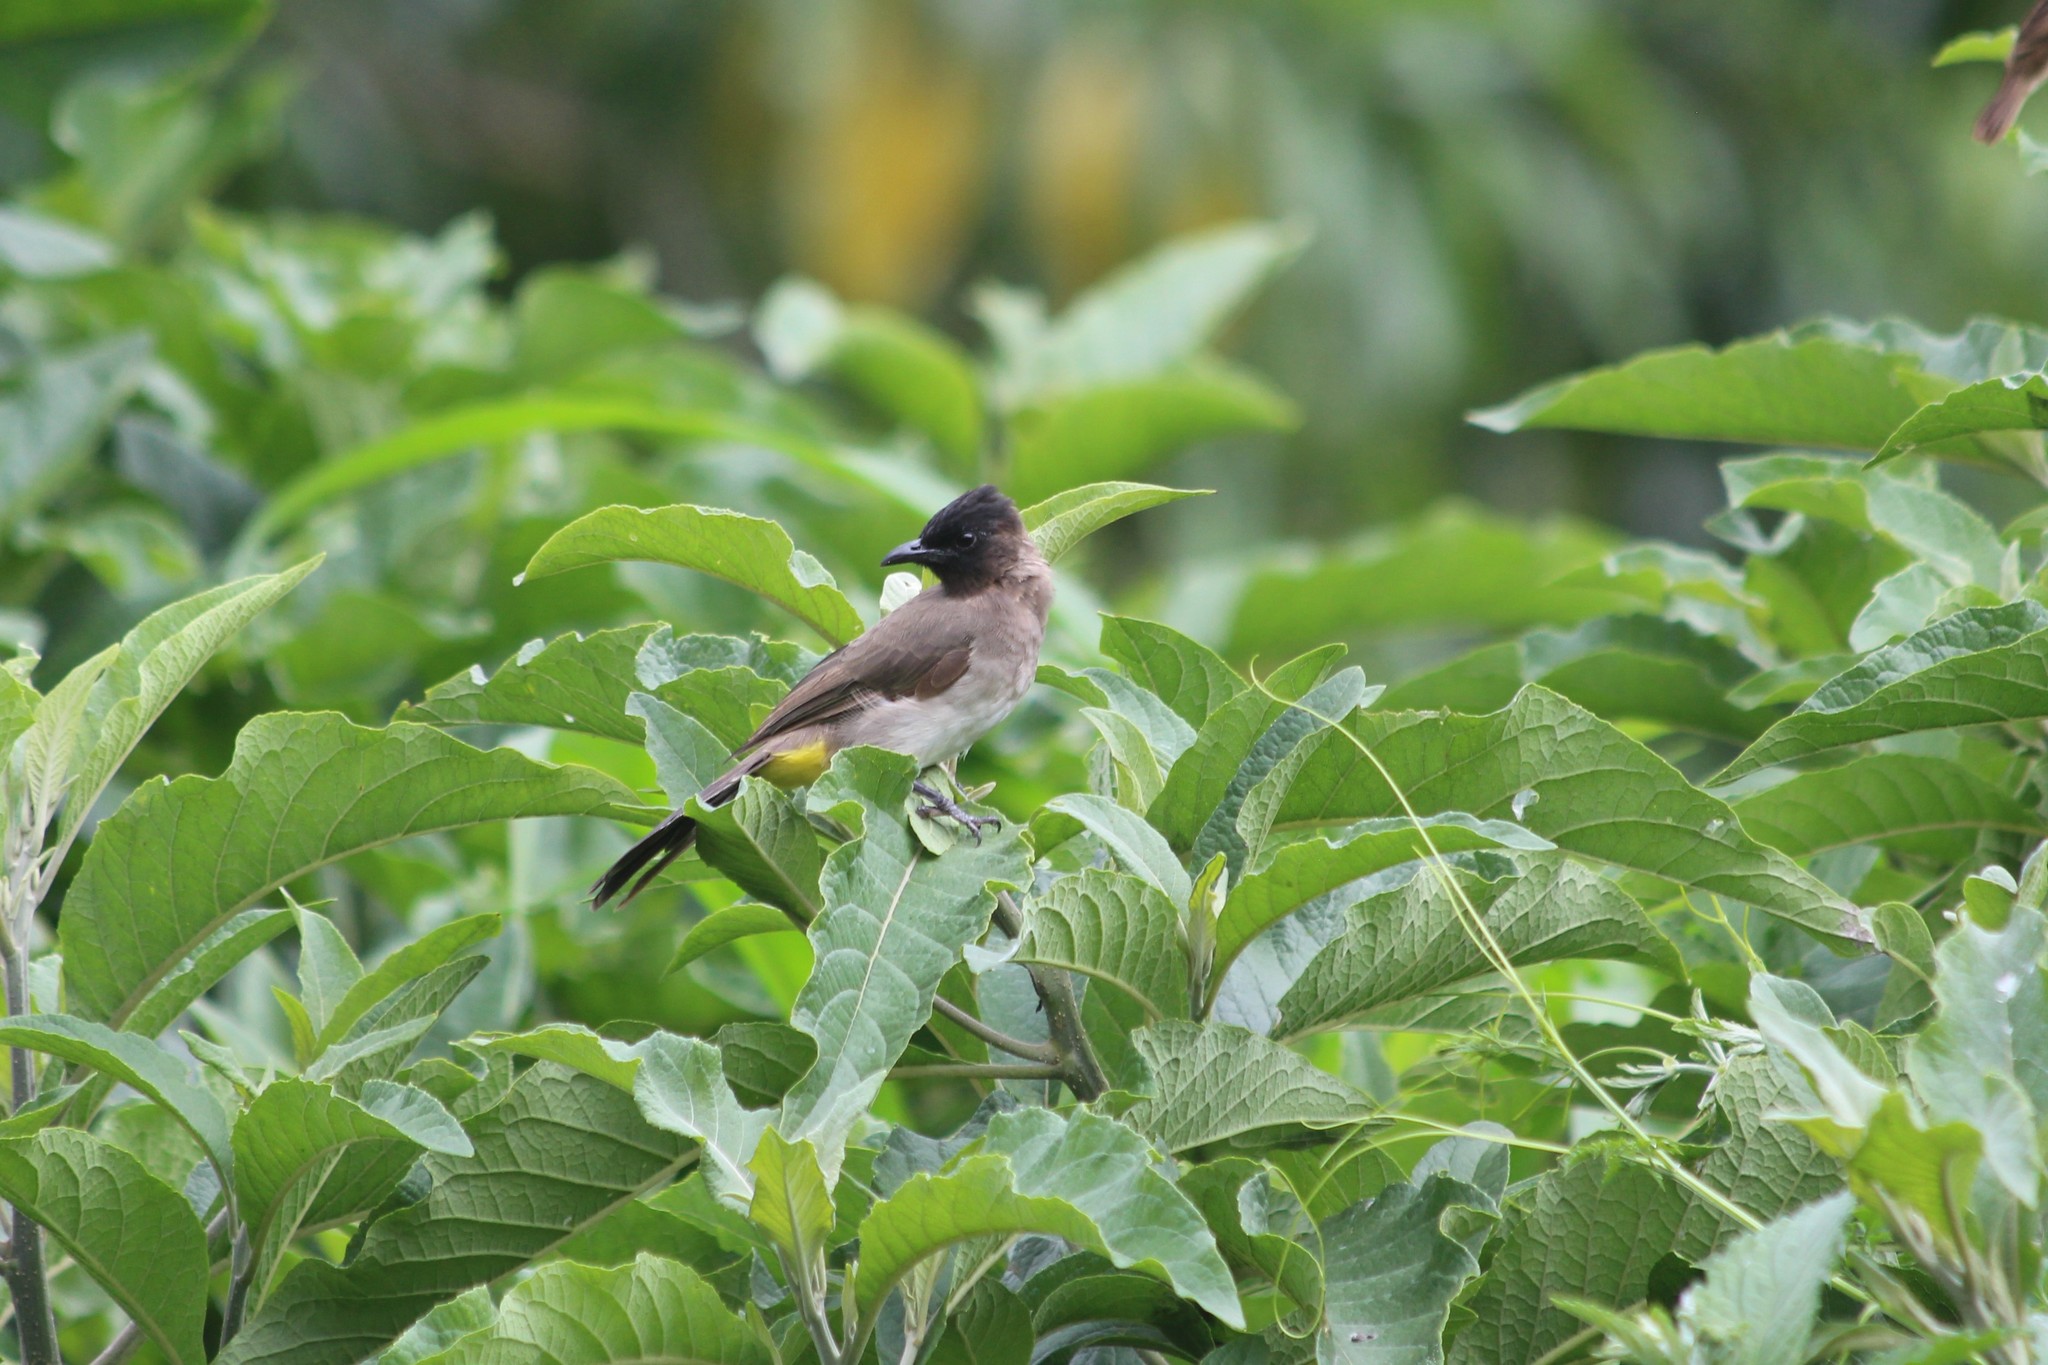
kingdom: Animalia
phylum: Chordata
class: Aves
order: Passeriformes
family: Pycnonotidae
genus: Pycnonotus
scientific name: Pycnonotus barbatus
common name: Common bulbul
